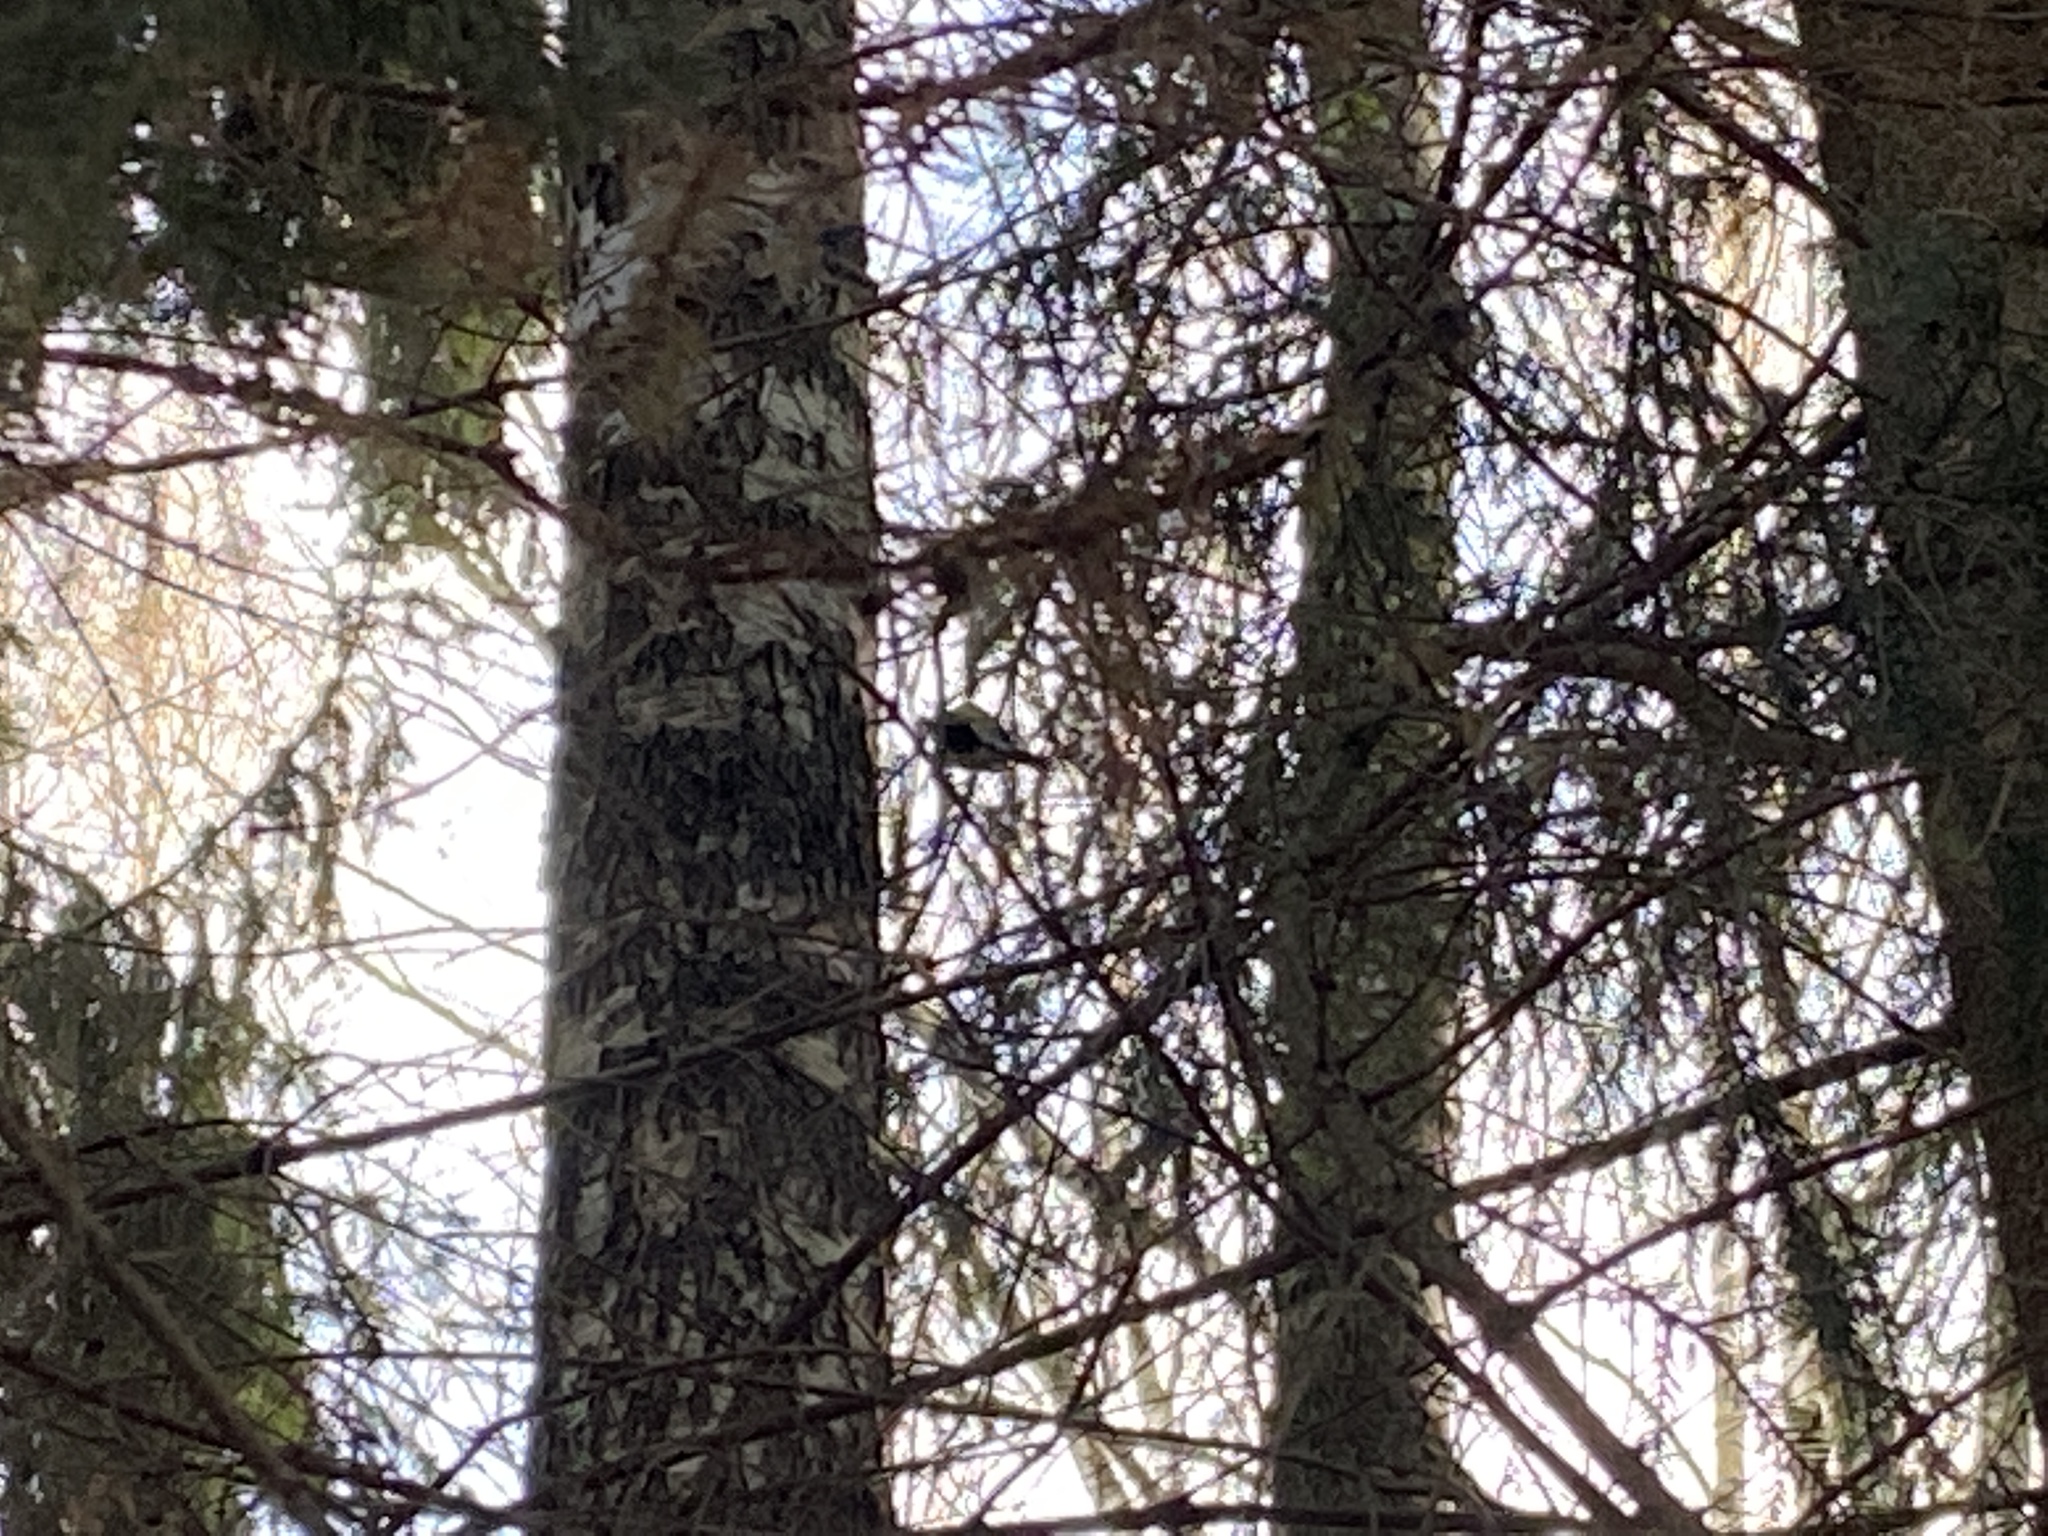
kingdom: Animalia
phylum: Chordata
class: Aves
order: Passeriformes
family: Paridae
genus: Parus
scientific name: Parus major
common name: Great tit
